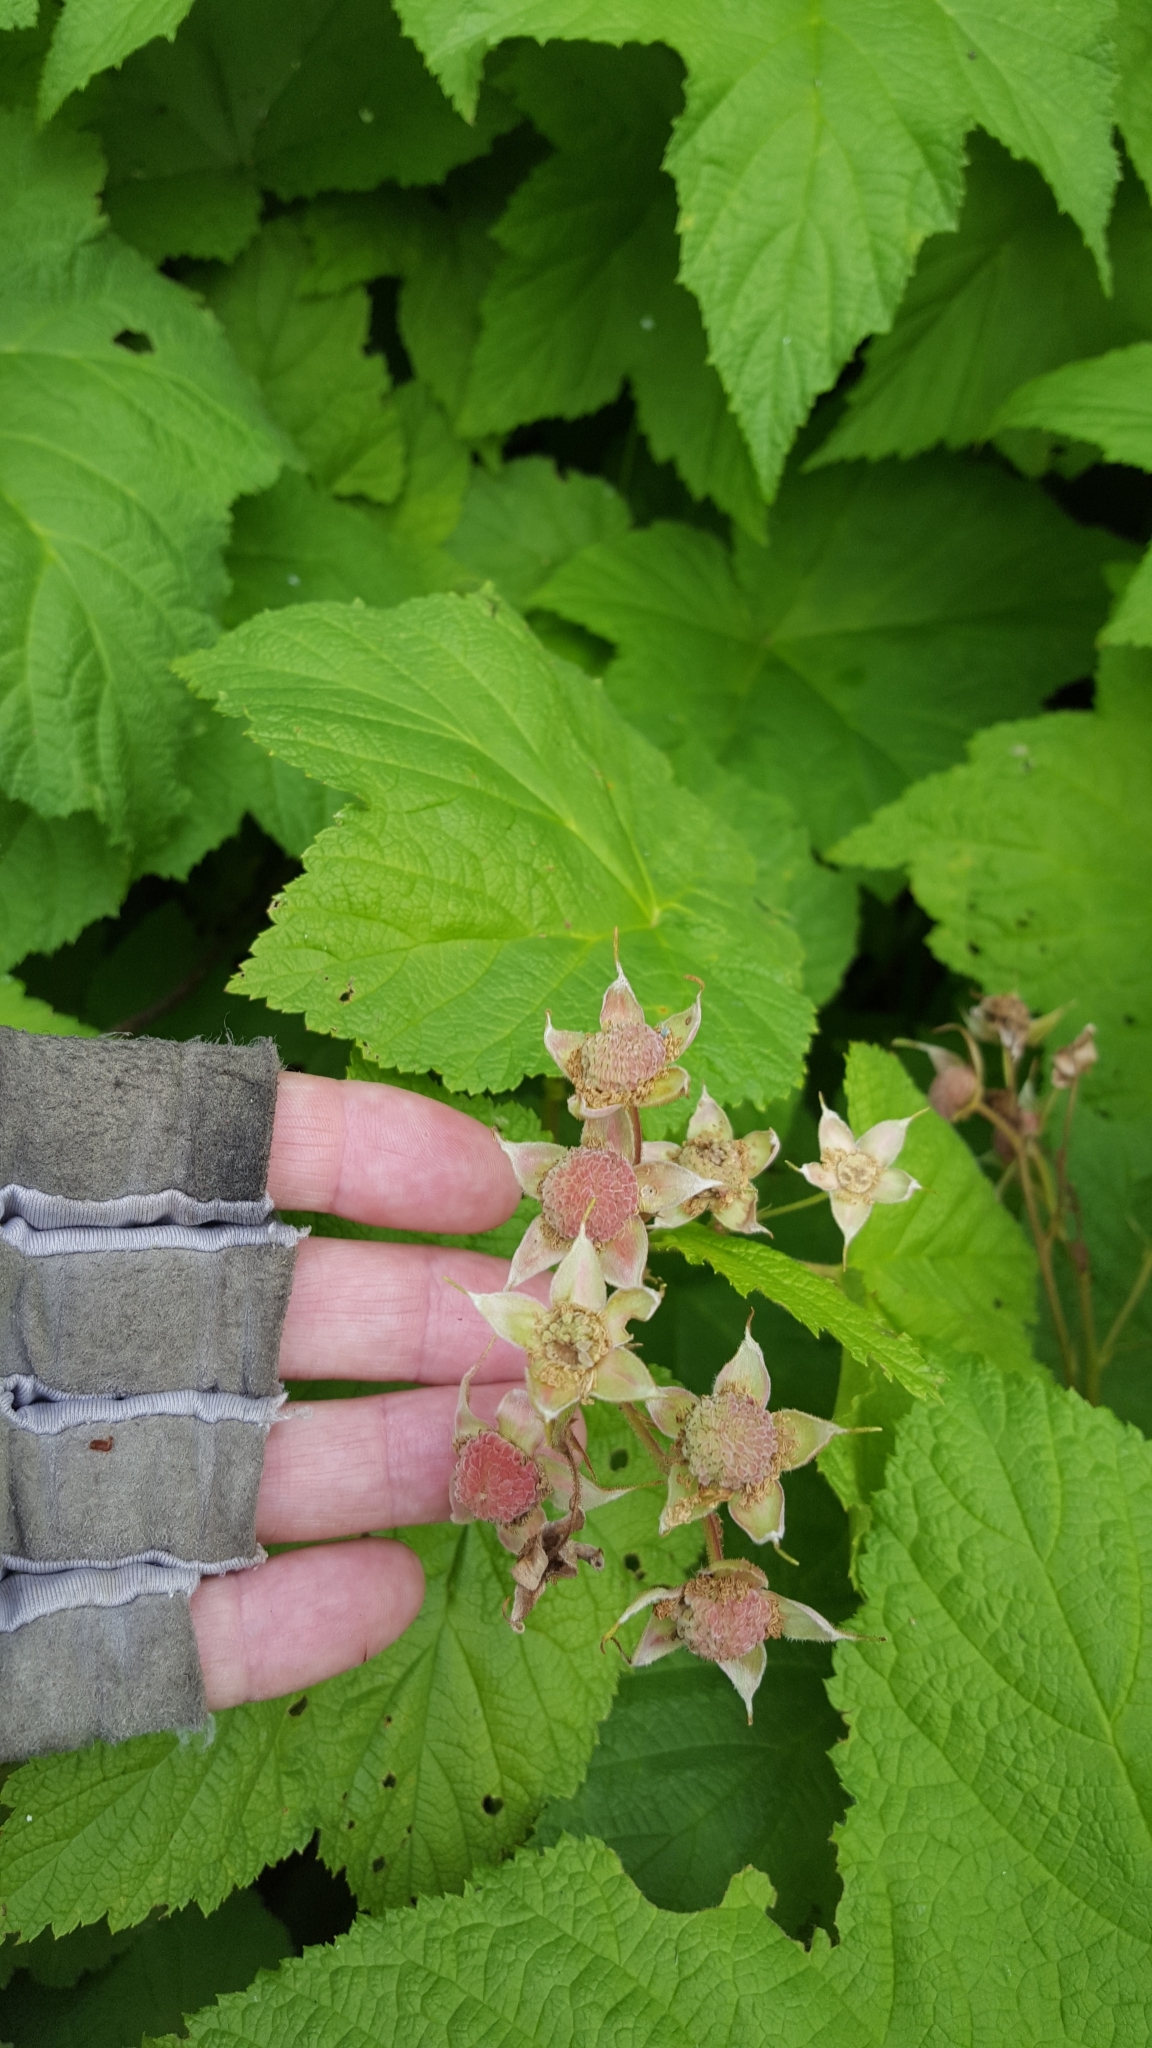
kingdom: Plantae
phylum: Tracheophyta
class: Magnoliopsida
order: Rosales
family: Rosaceae
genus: Rubus
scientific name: Rubus parviflorus
